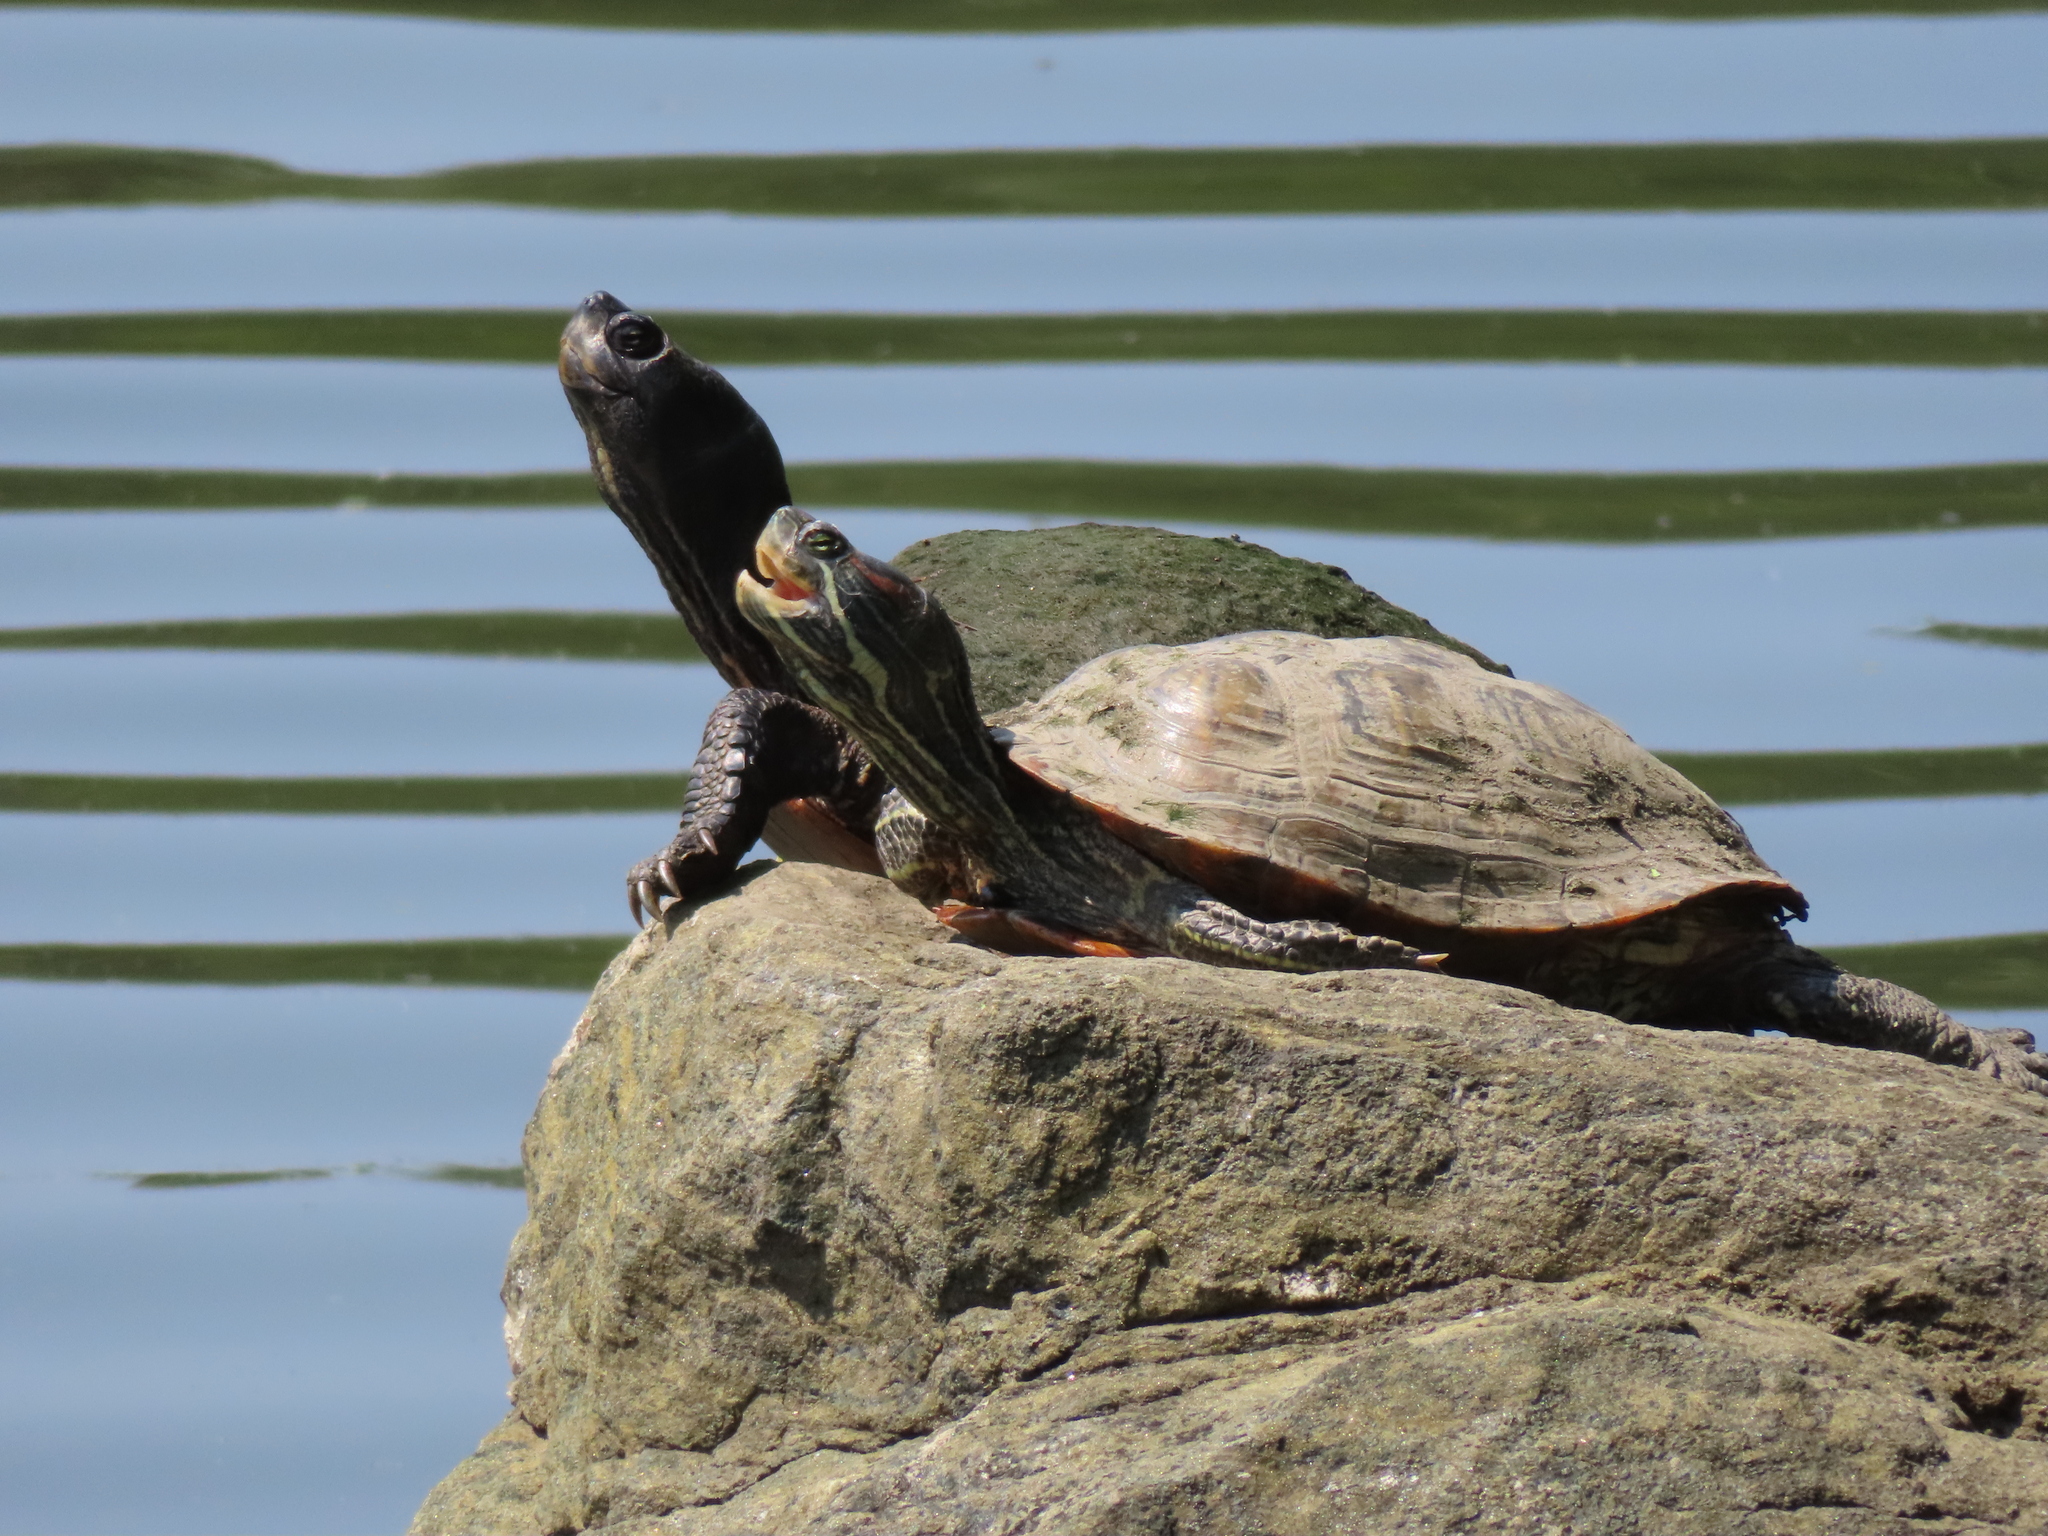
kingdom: Animalia
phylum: Chordata
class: Testudines
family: Emydidae
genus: Trachemys
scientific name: Trachemys scripta
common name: Slider
